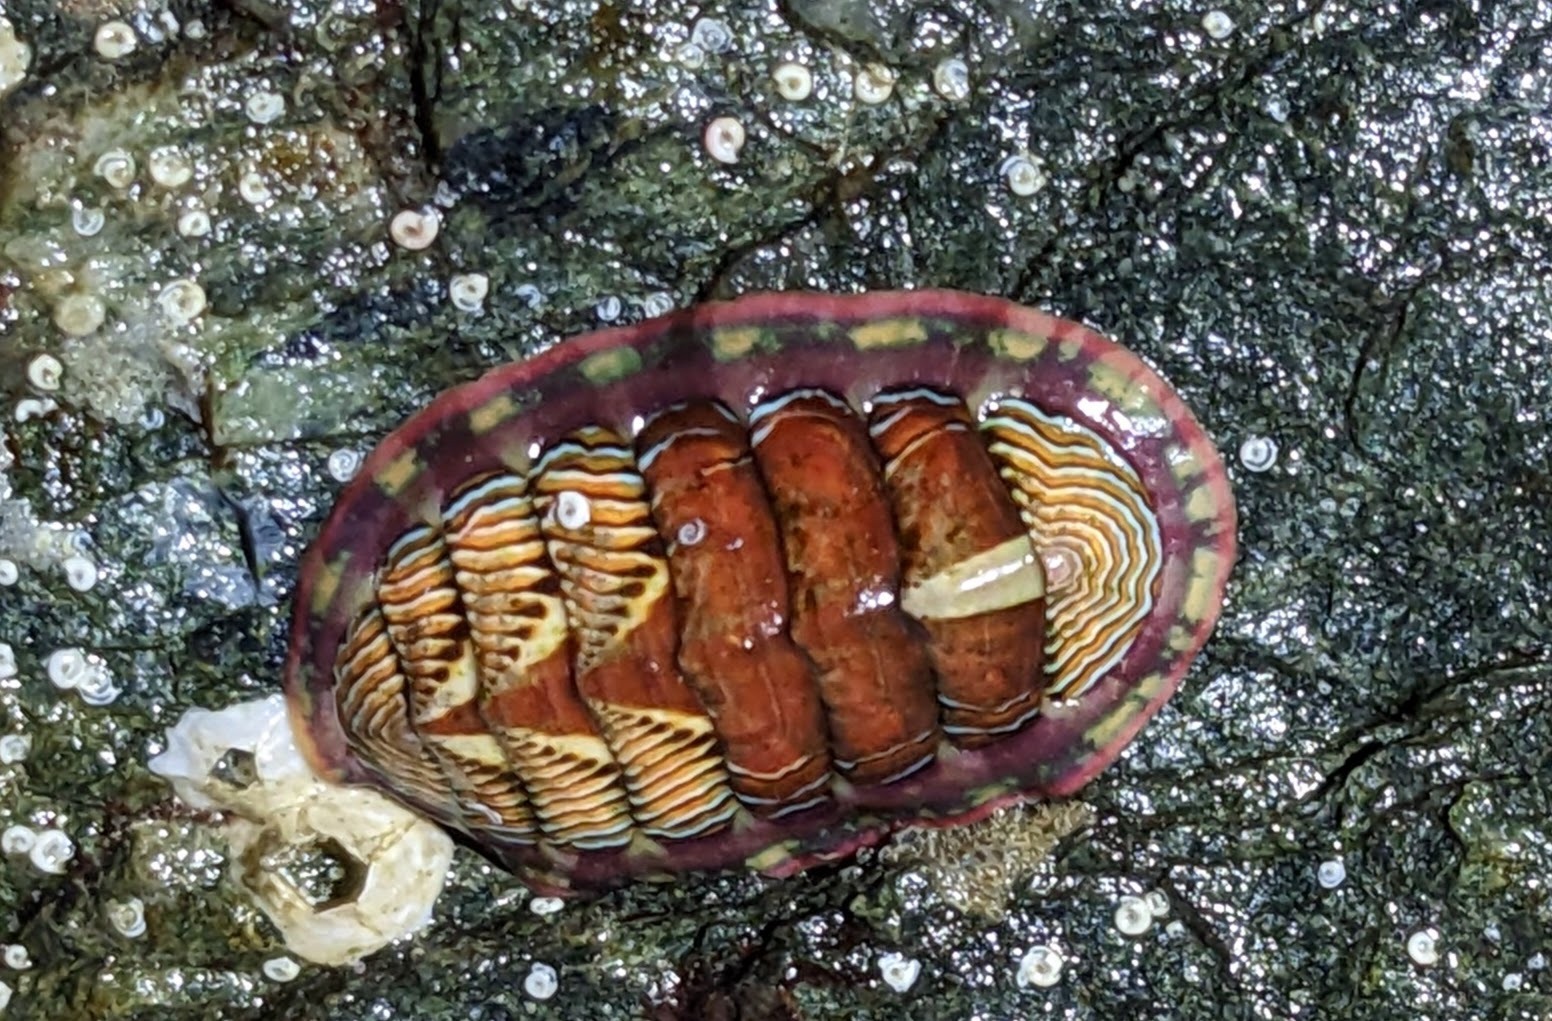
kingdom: Animalia
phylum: Mollusca
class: Polyplacophora
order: Chitonida
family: Tonicellidae
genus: Tonicella
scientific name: Tonicella lineata
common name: Lined chiton
